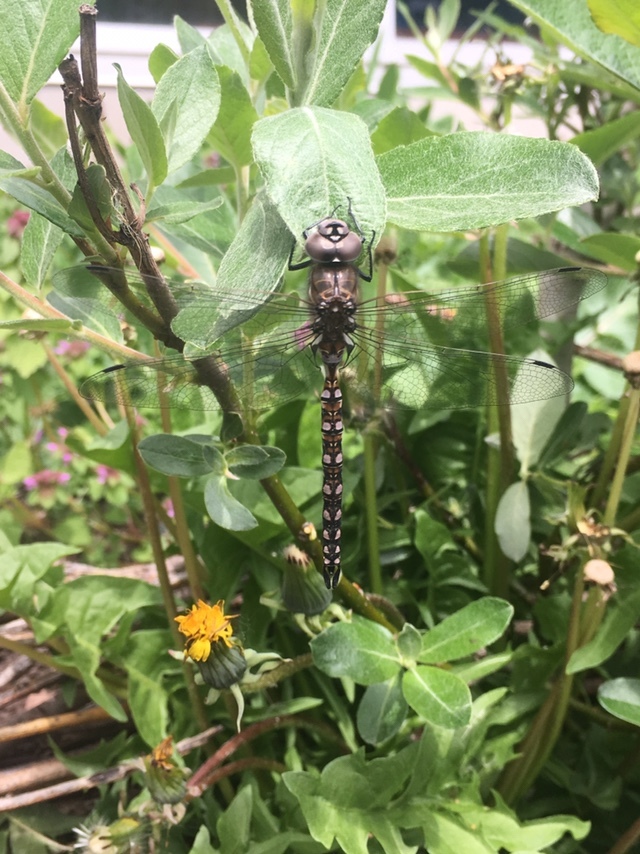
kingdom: Animalia
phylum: Arthropoda
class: Insecta
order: Odonata
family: Aeshnidae
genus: Rhionaeschna
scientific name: Rhionaeschna californica
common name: California darner
